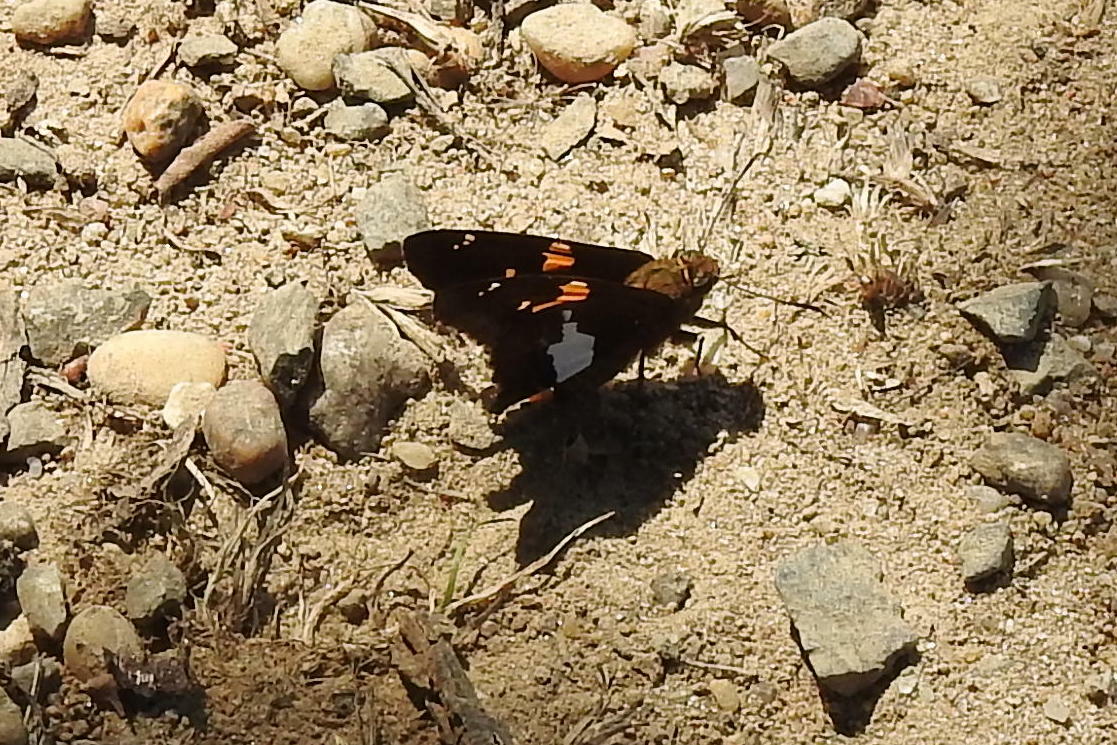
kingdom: Animalia
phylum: Arthropoda
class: Insecta
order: Lepidoptera
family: Hesperiidae
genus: Epargyreus
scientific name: Epargyreus clarus
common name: Silver-spotted skipper
